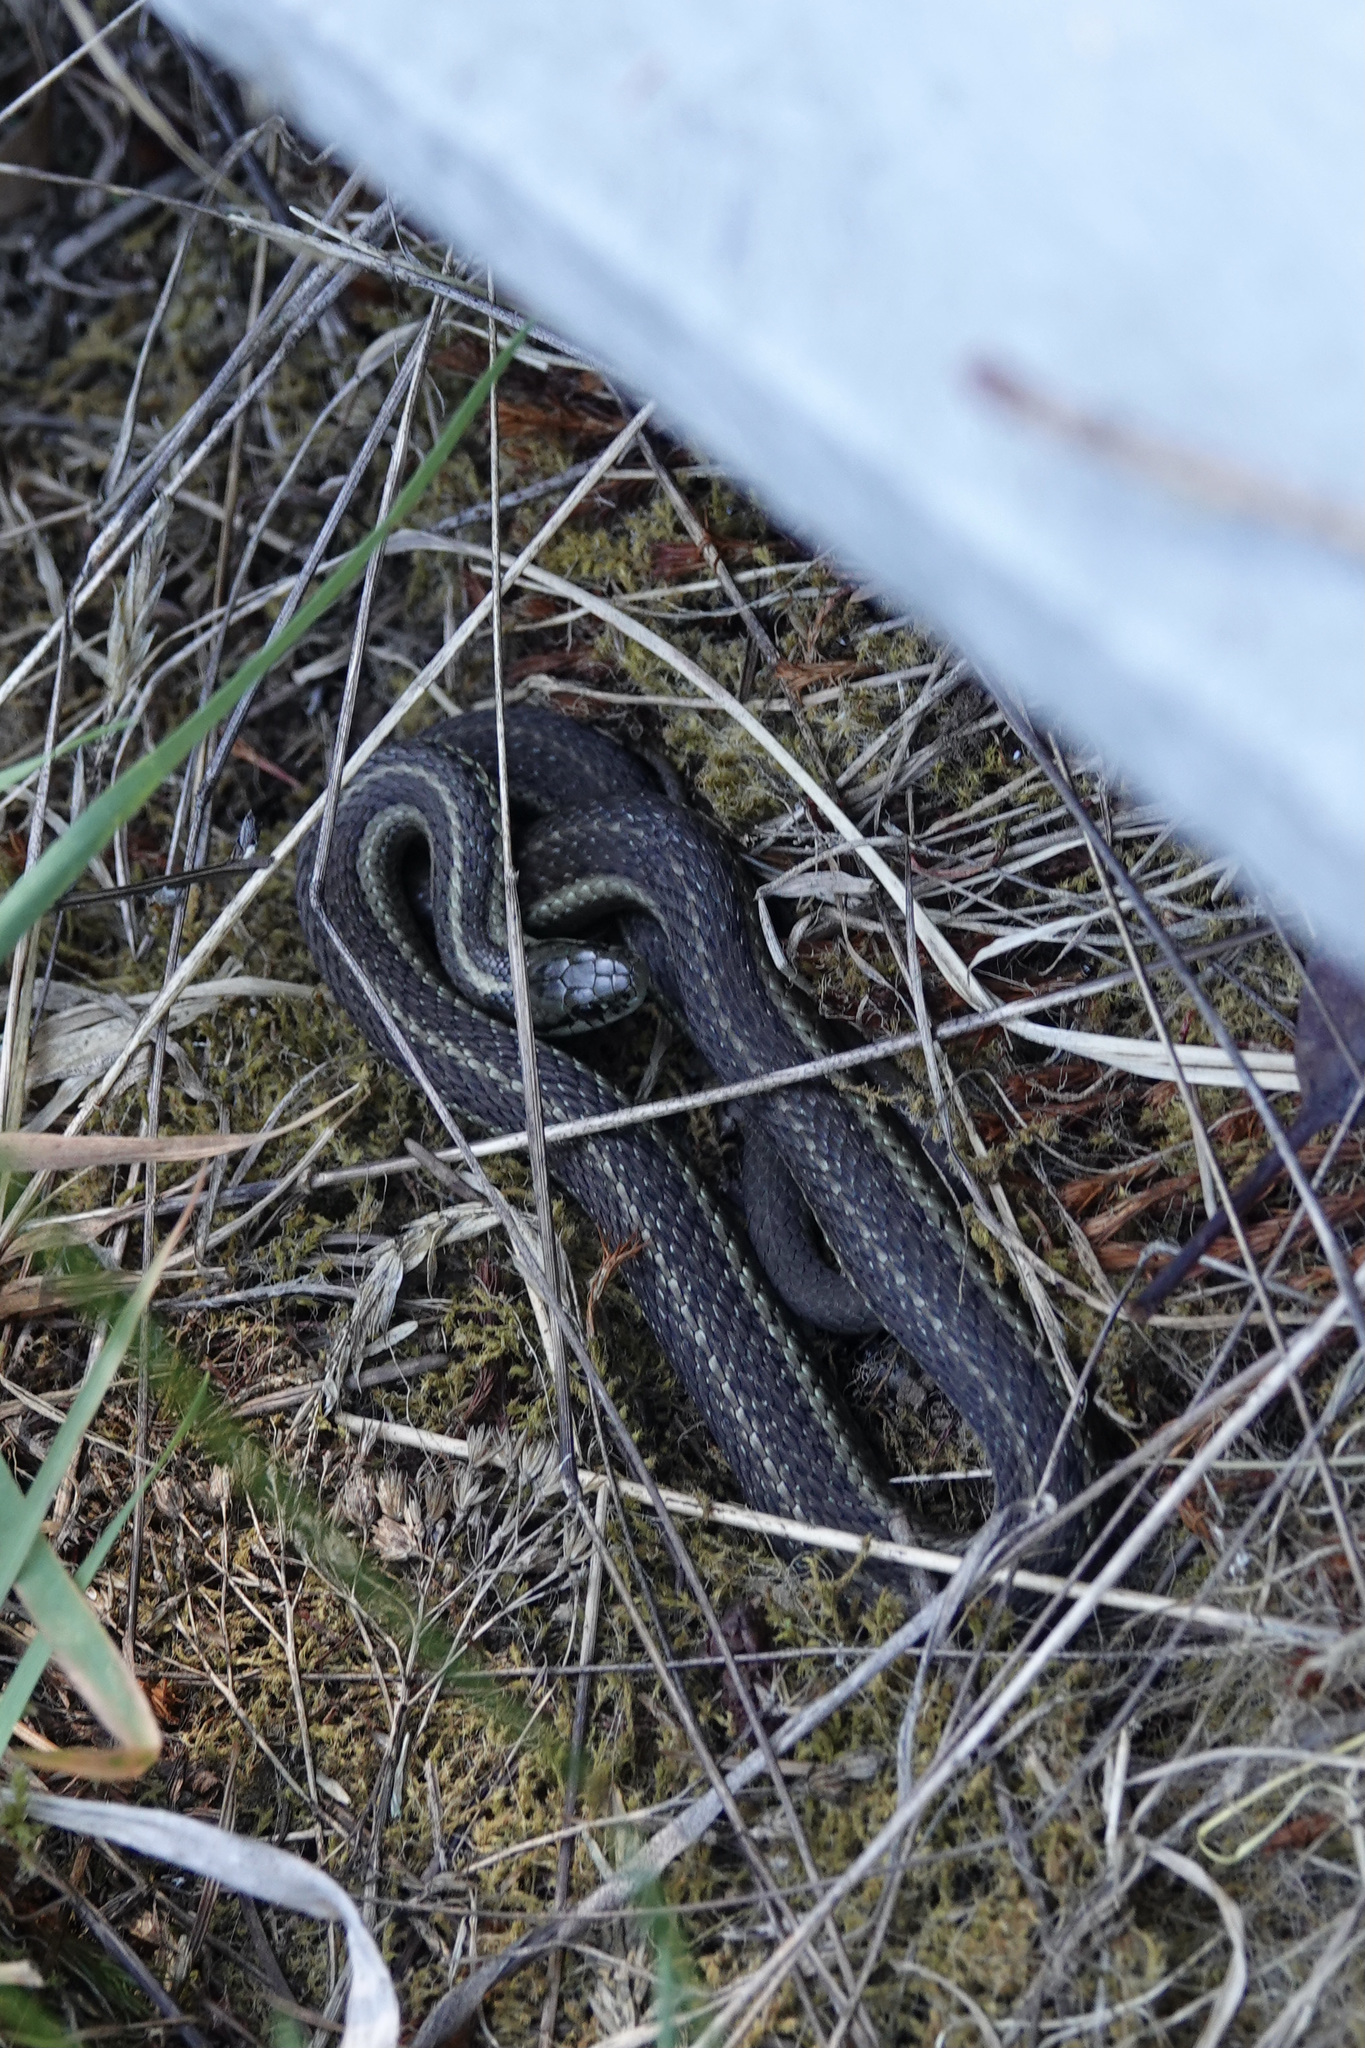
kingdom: Animalia
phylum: Chordata
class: Squamata
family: Colubridae
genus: Thamnophis
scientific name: Thamnophis ordinoides
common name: Northwestern garter snake
